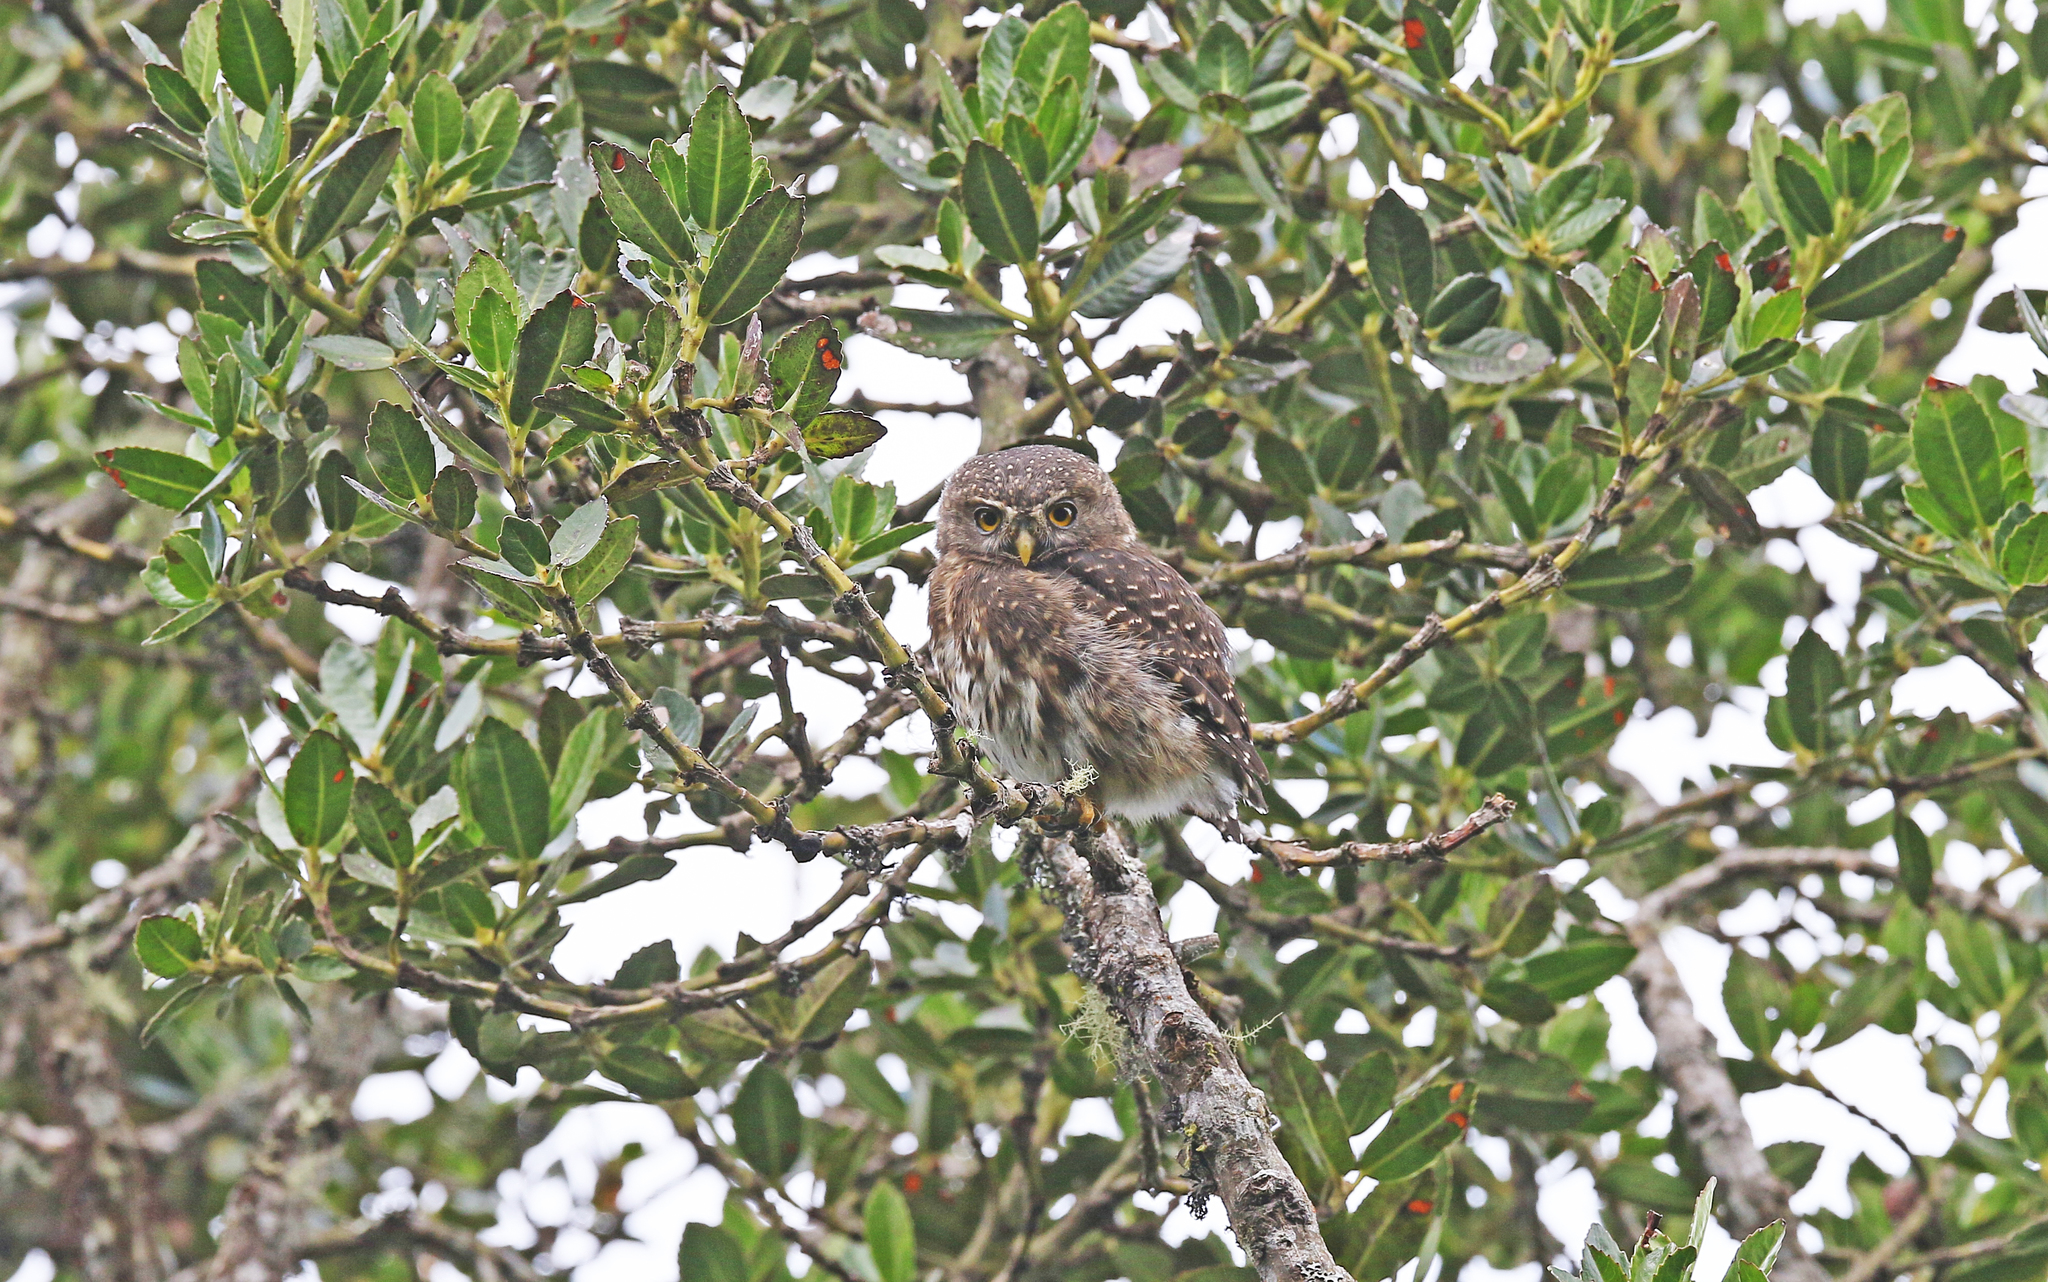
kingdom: Animalia
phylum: Chordata
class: Aves
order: Strigiformes
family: Strigidae
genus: Glaucidium
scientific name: Glaucidium jardinii
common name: Andean pygmy owl
